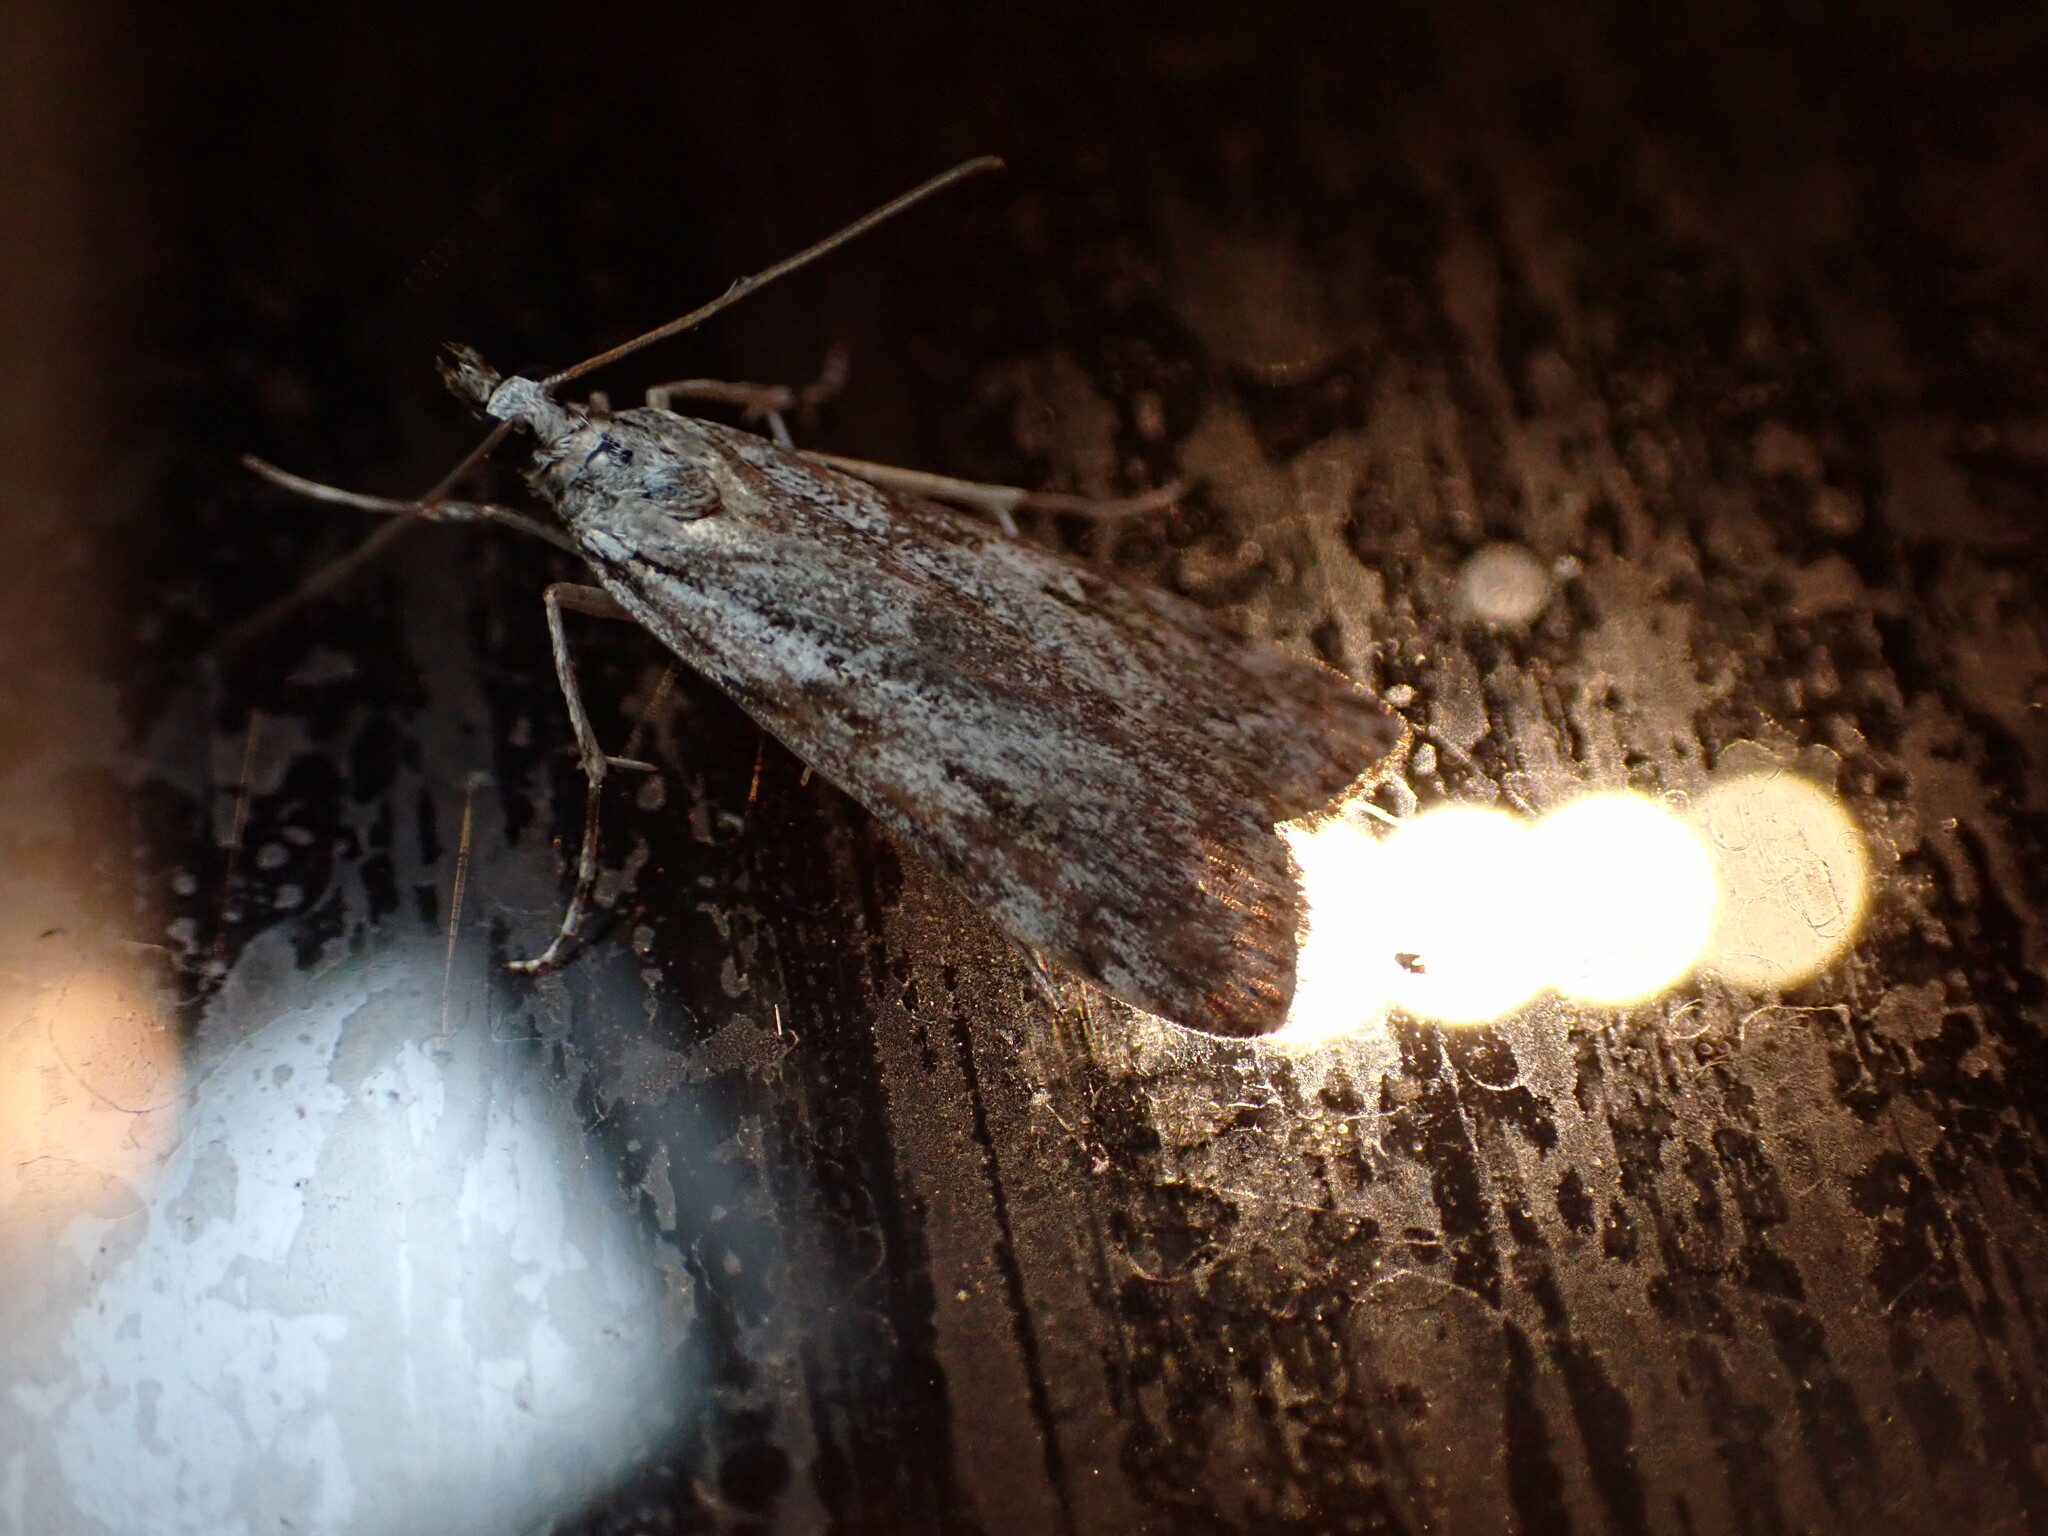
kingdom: Animalia
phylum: Arthropoda
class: Insecta
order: Lepidoptera
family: Crambidae
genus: Scoparia
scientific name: Scoparia halopis
